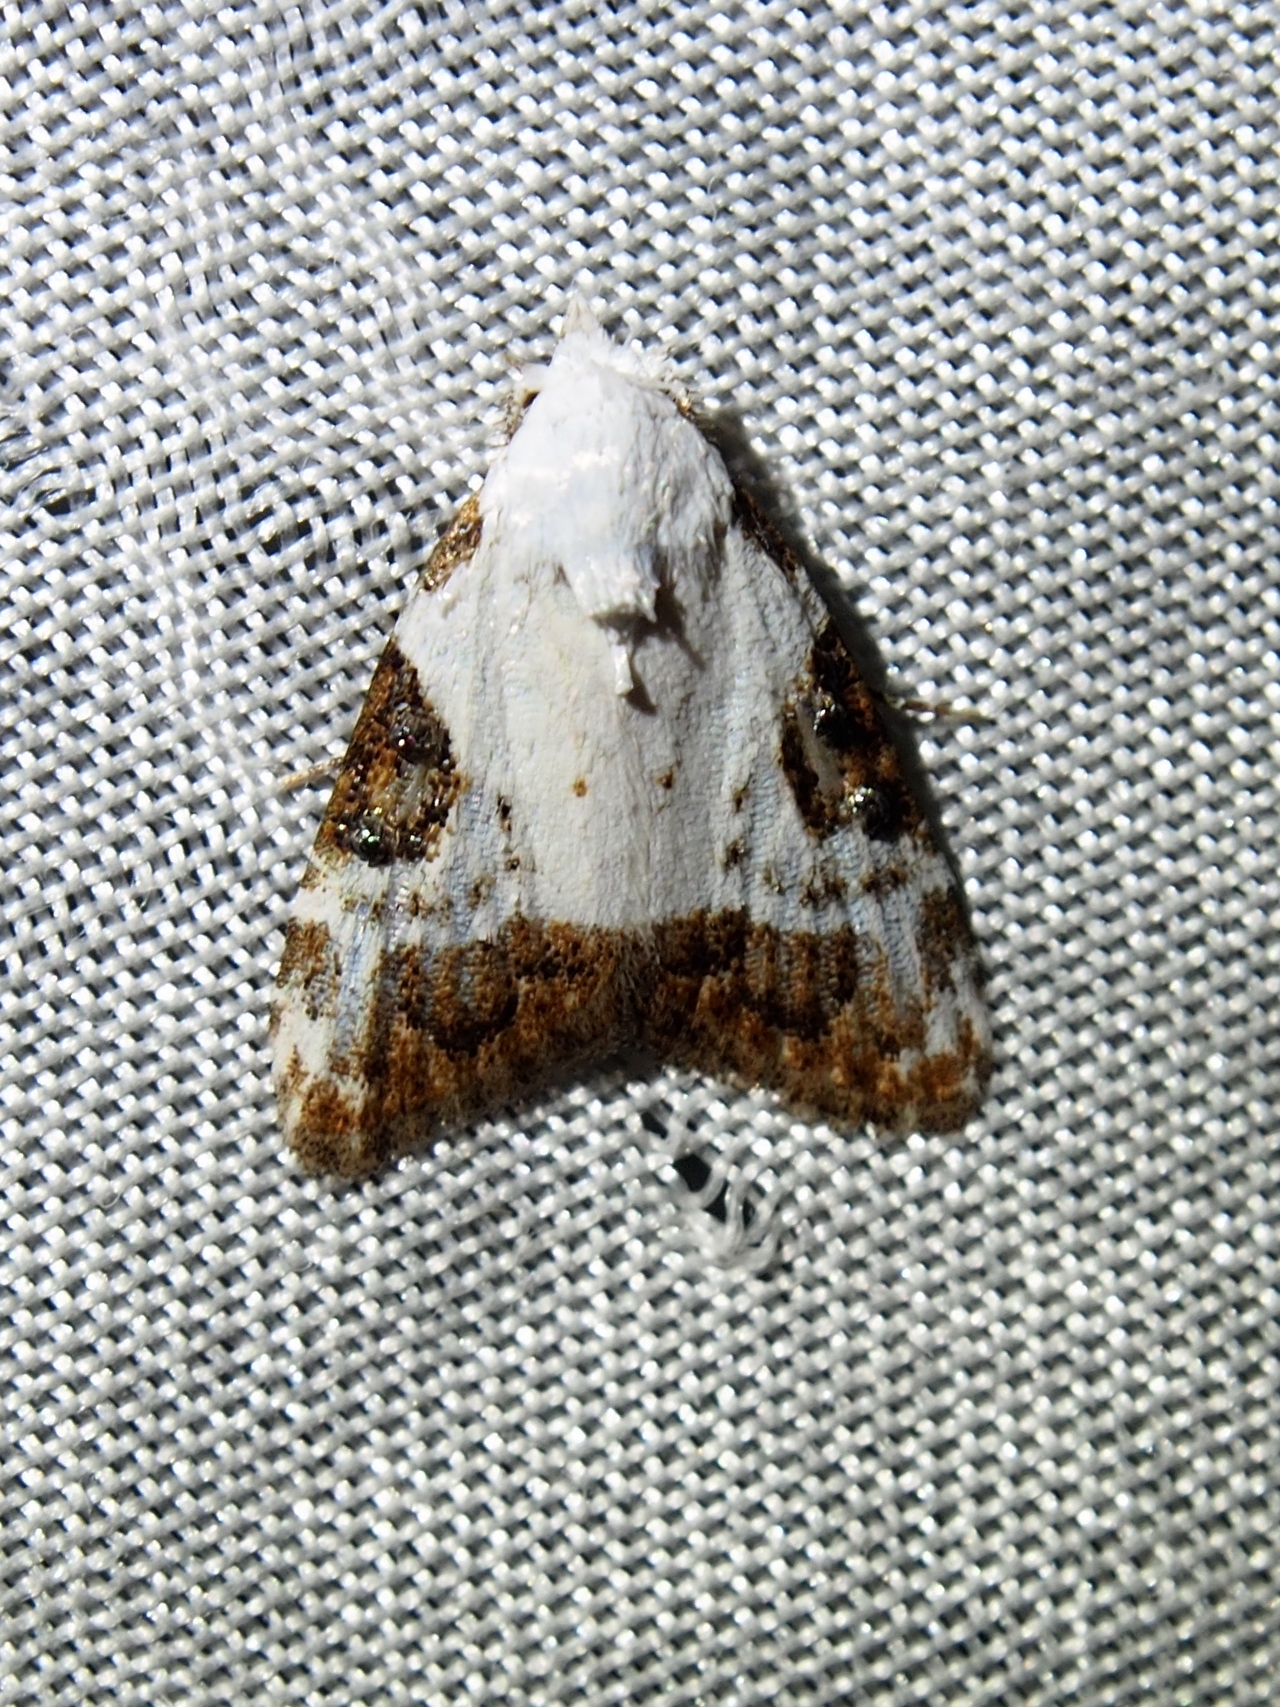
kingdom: Animalia
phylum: Arthropoda
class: Insecta
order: Lepidoptera
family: Nolidae
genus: Meganola
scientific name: Meganola
